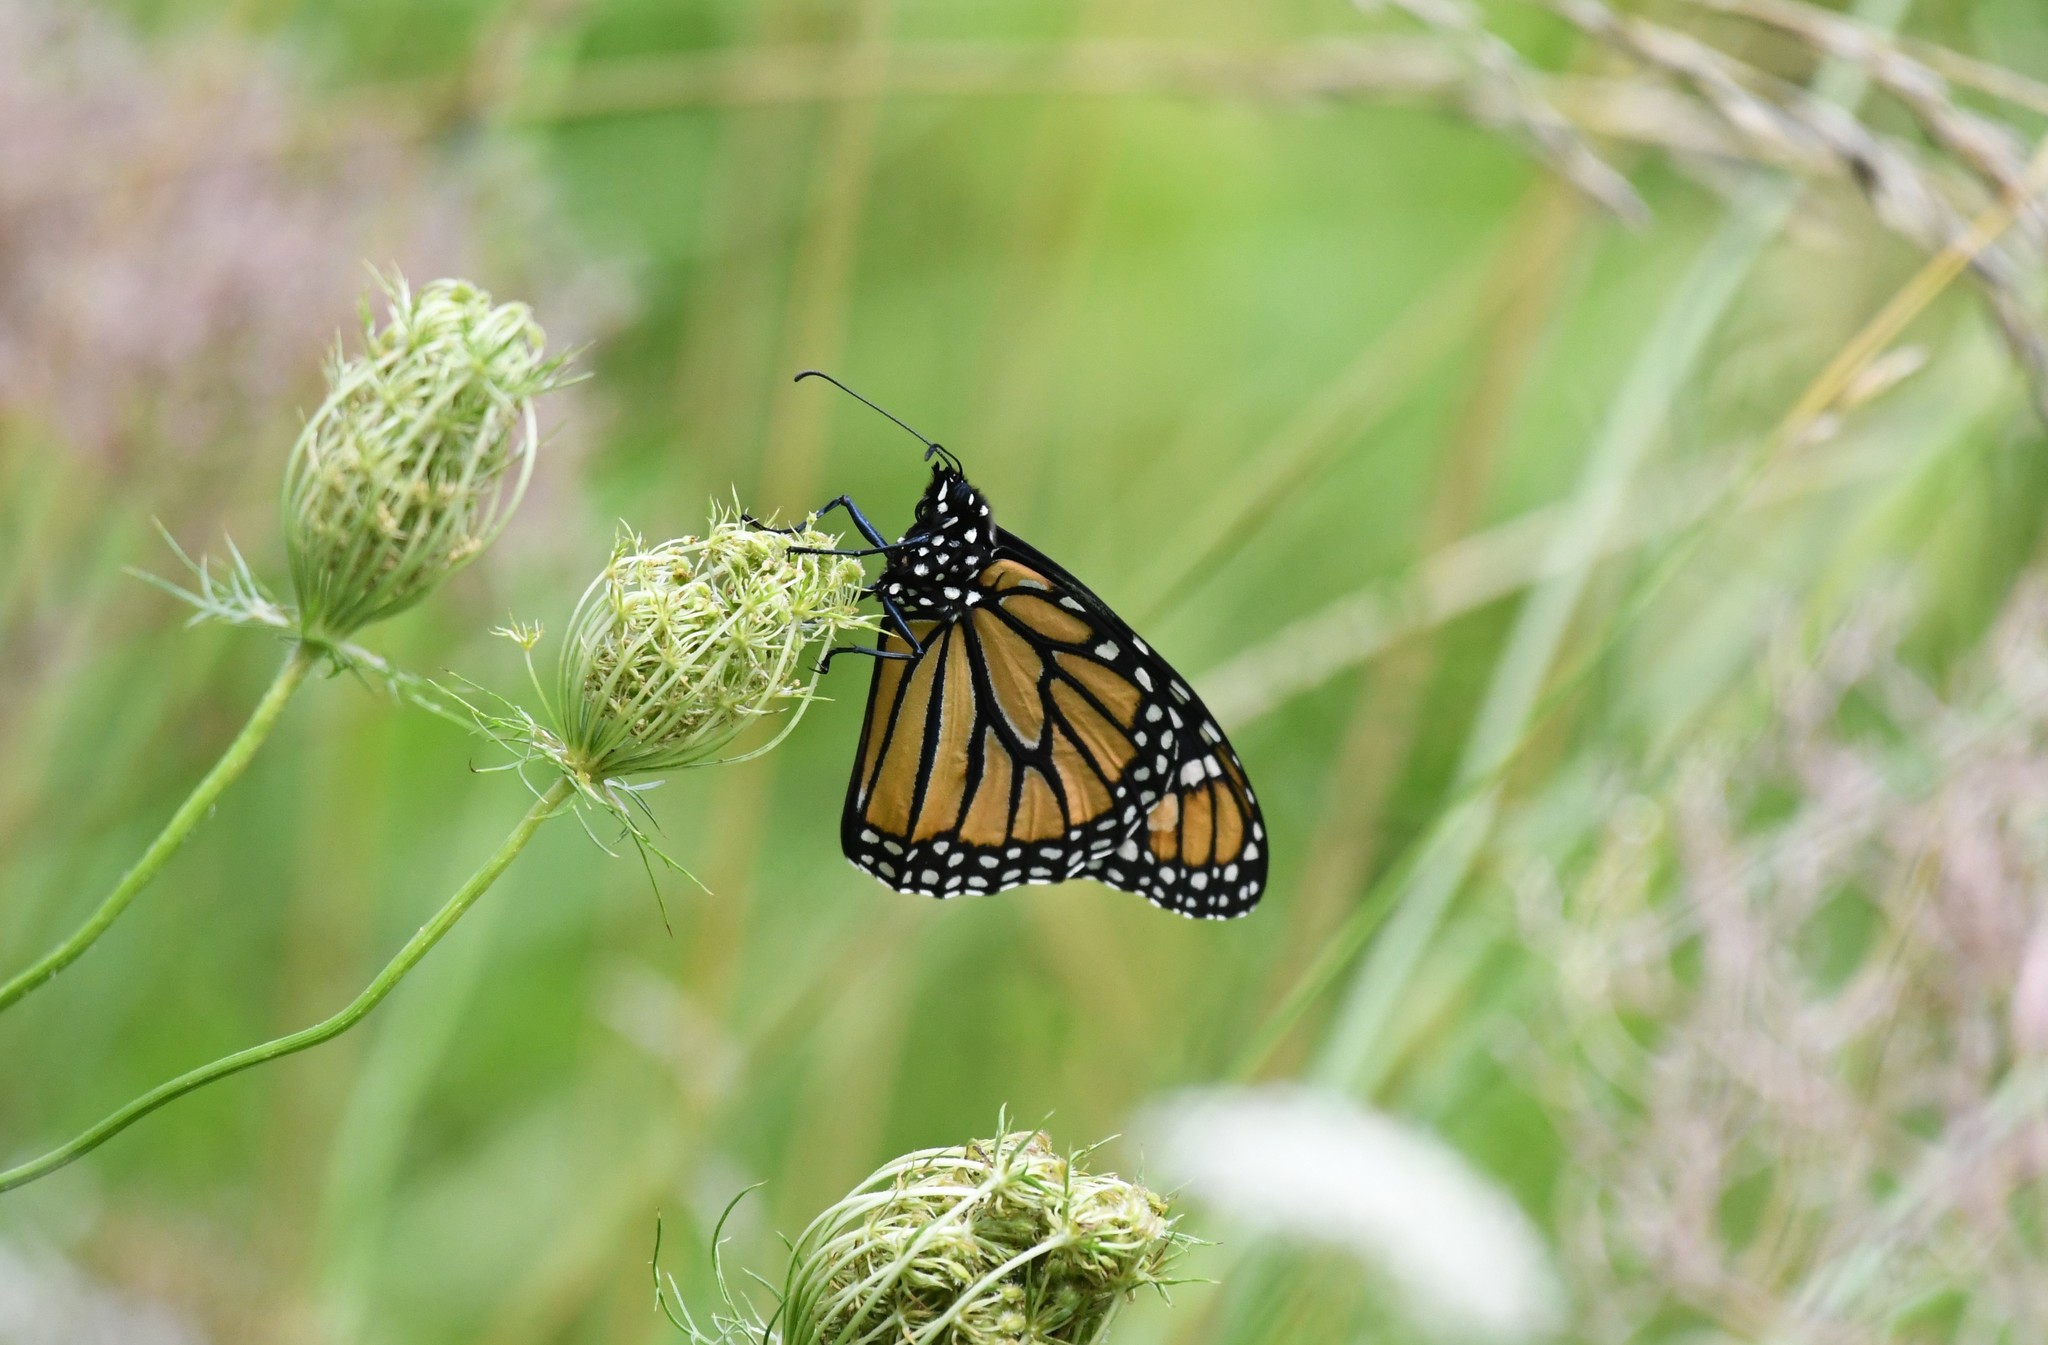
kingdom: Animalia
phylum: Arthropoda
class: Insecta
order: Lepidoptera
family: Nymphalidae
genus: Danaus
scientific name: Danaus plexippus
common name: Monarch
